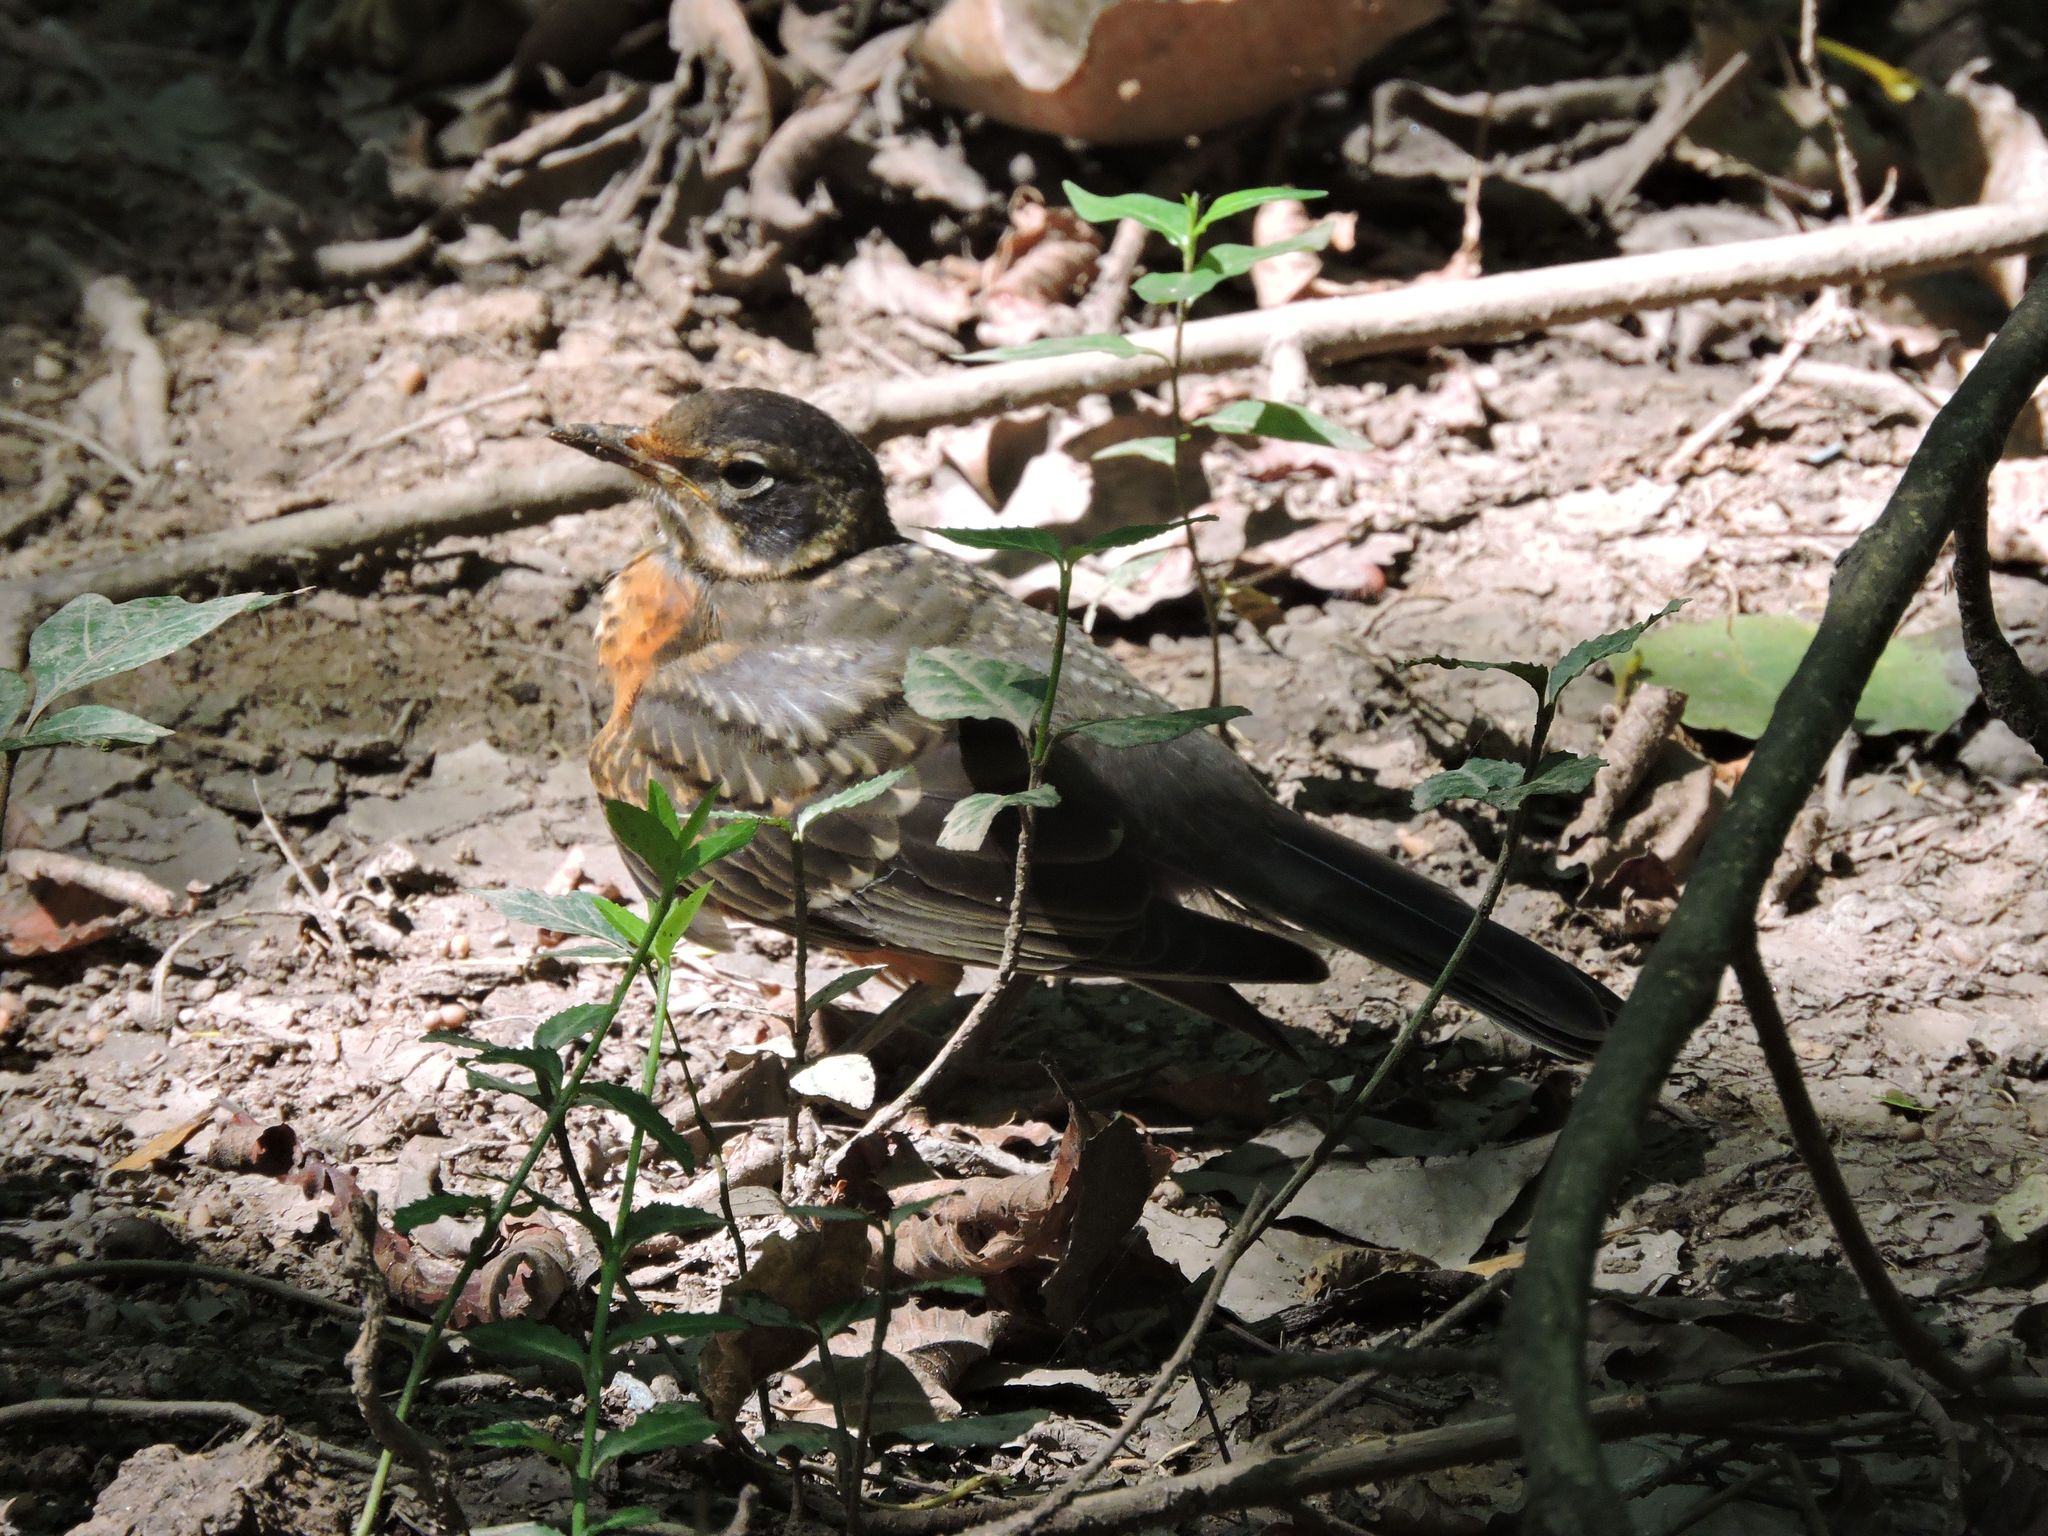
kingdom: Animalia
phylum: Chordata
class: Aves
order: Passeriformes
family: Turdidae
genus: Turdus
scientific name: Turdus migratorius
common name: American robin
